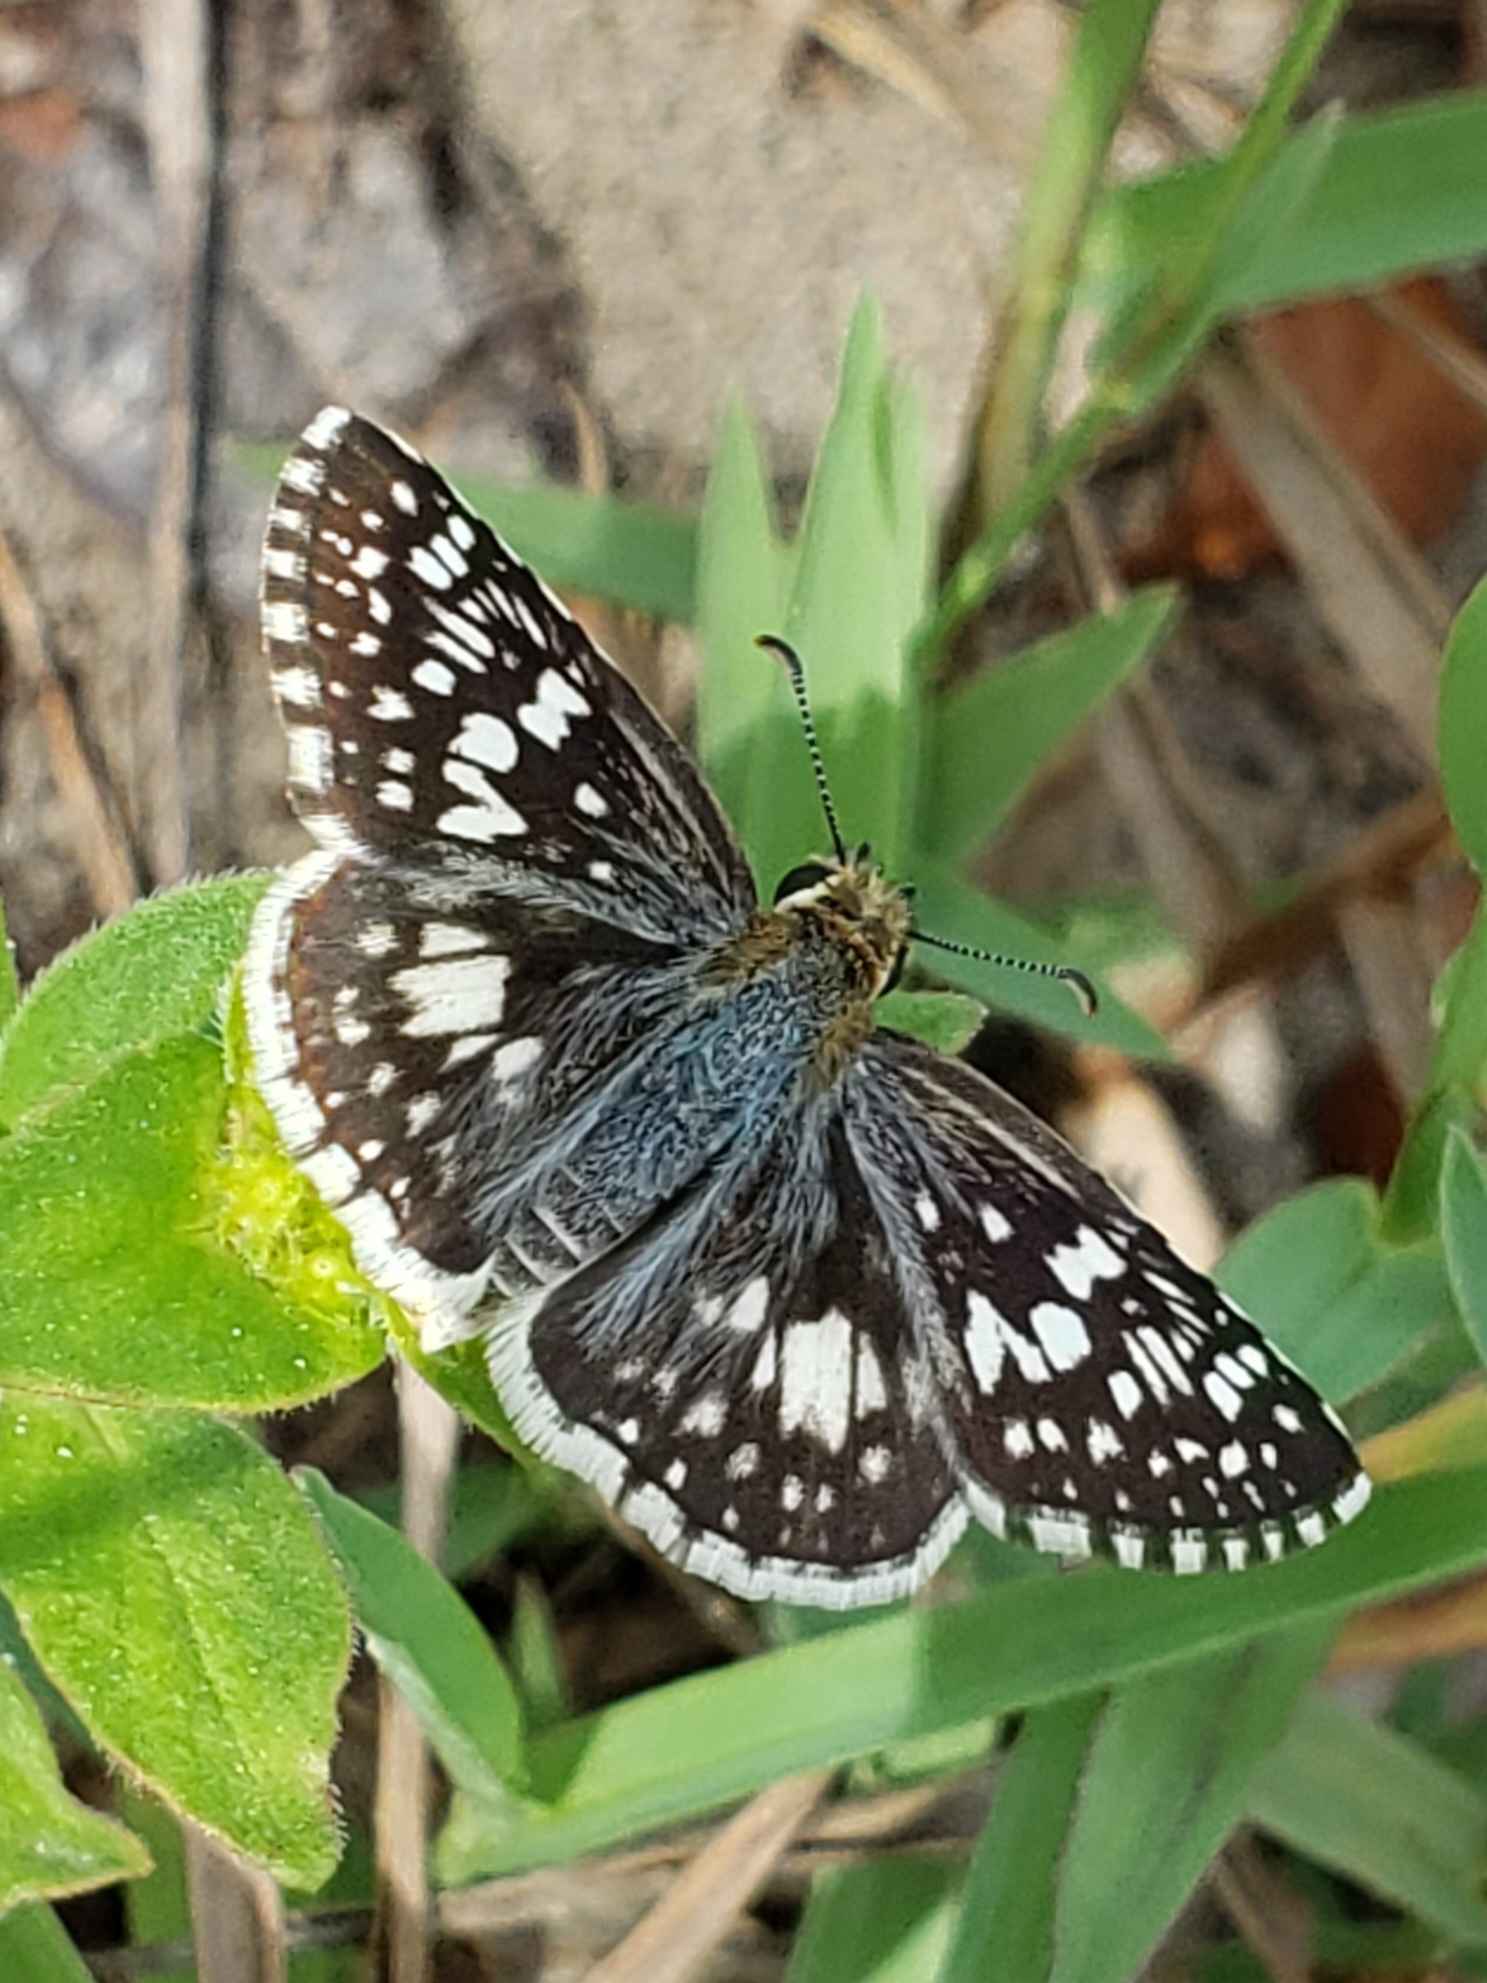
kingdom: Animalia
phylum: Arthropoda
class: Insecta
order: Lepidoptera
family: Hesperiidae
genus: Burnsius
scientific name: Burnsius albezens
